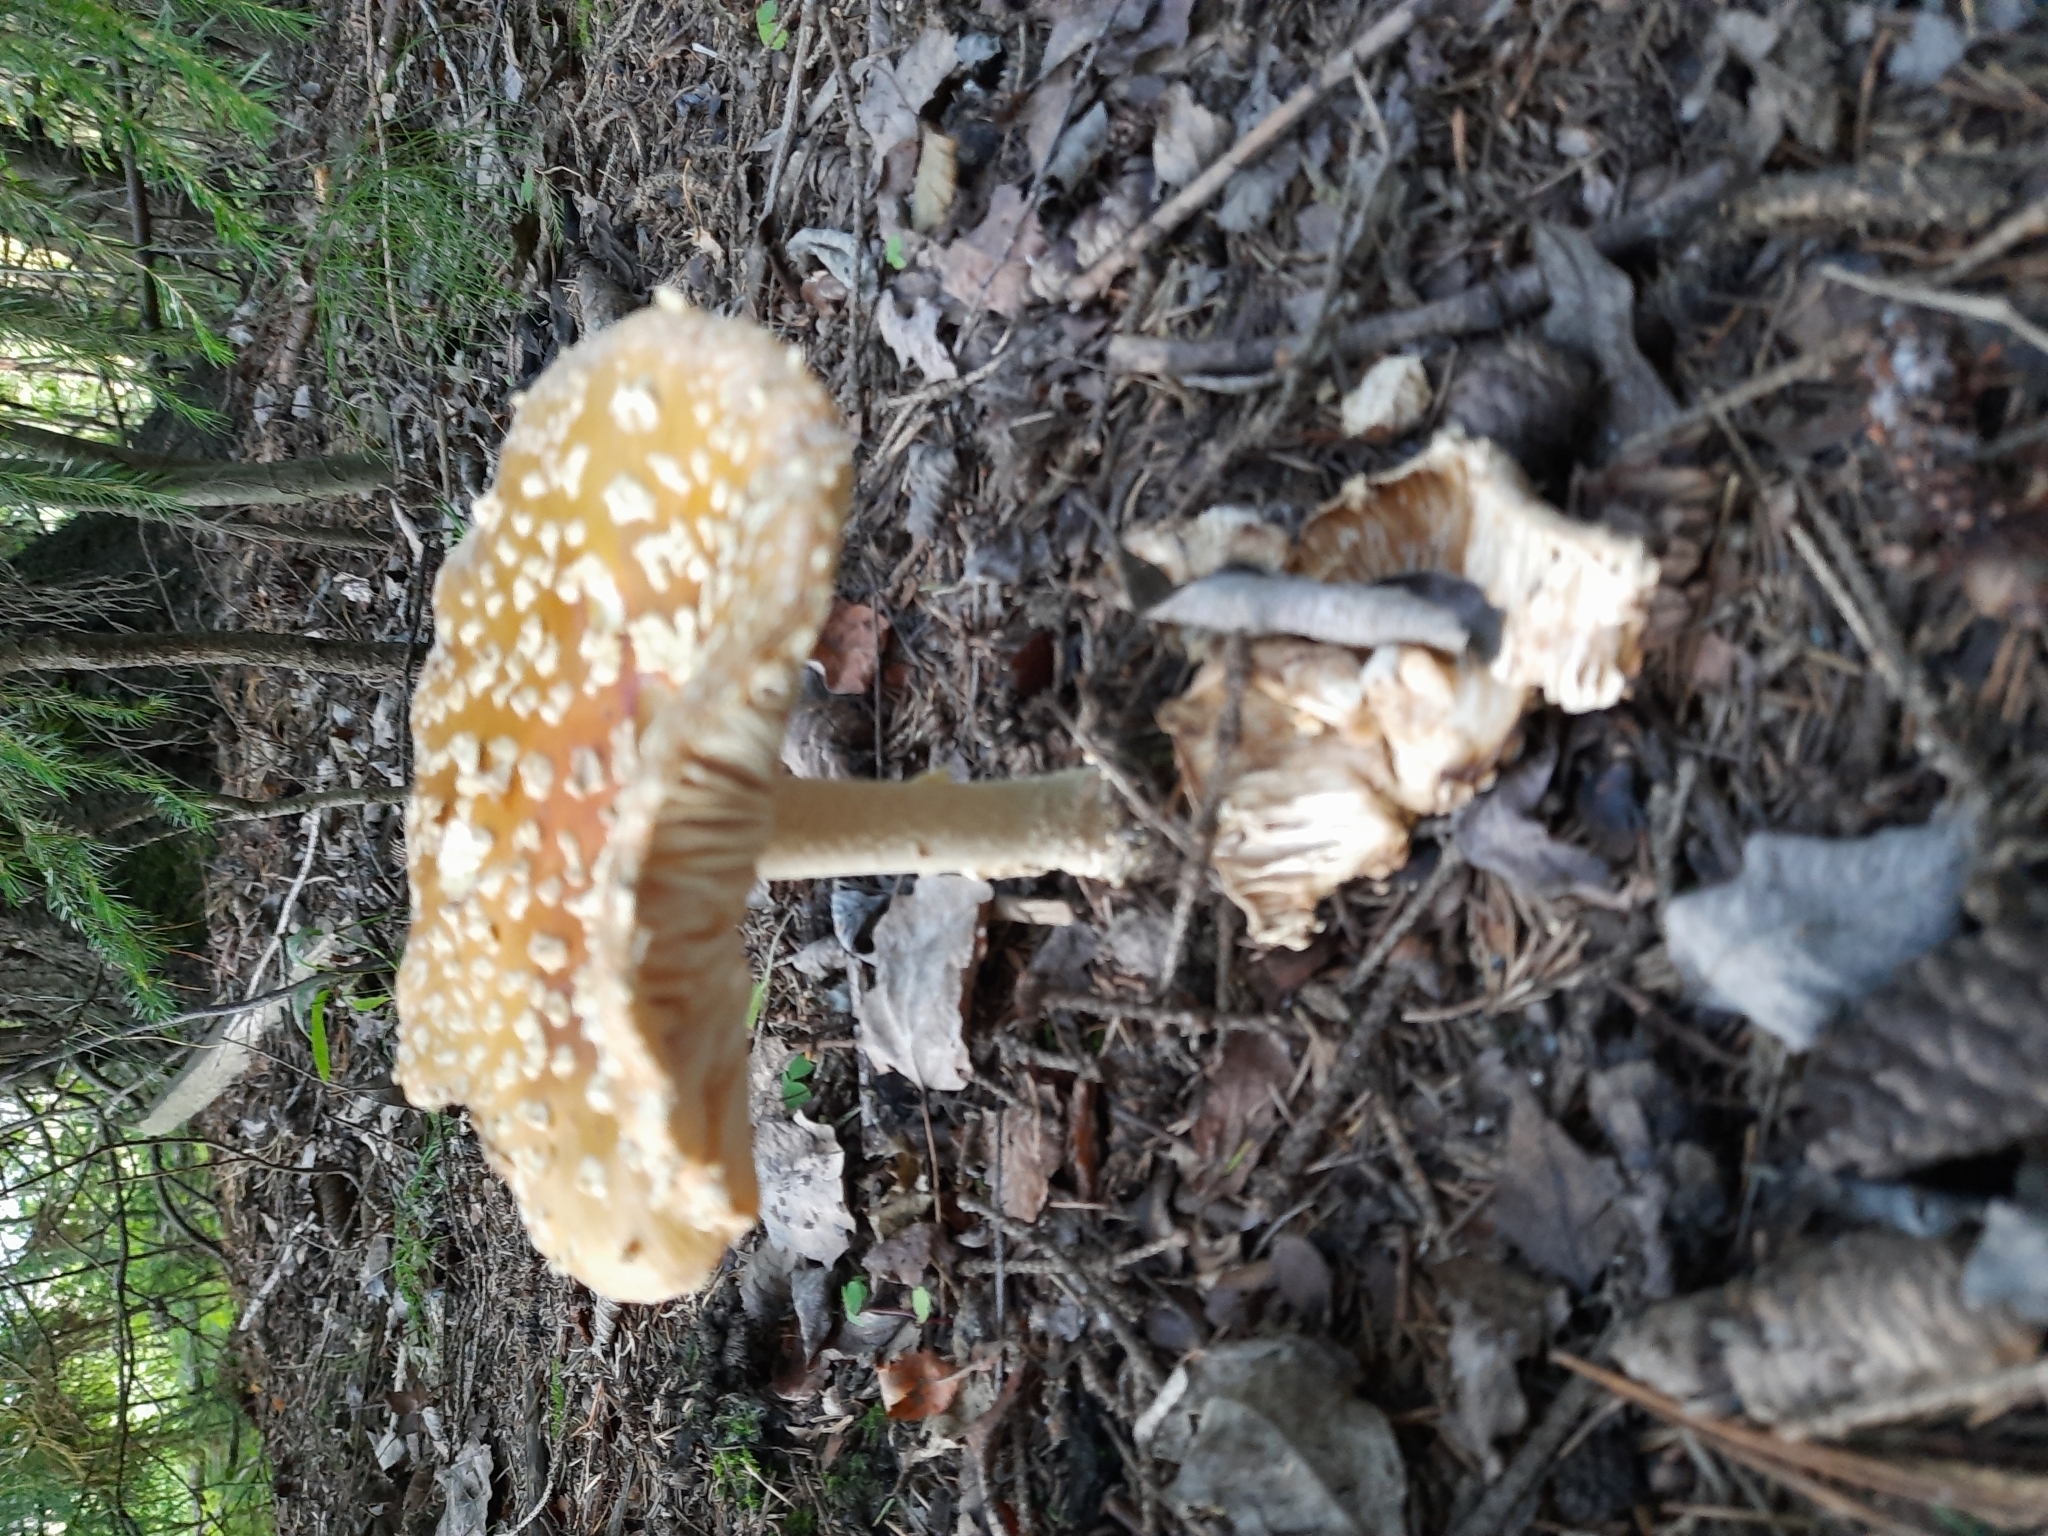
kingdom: Fungi
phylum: Basidiomycota
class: Agaricomycetes
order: Agaricales
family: Amanitaceae
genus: Amanita
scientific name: Amanita regalis
